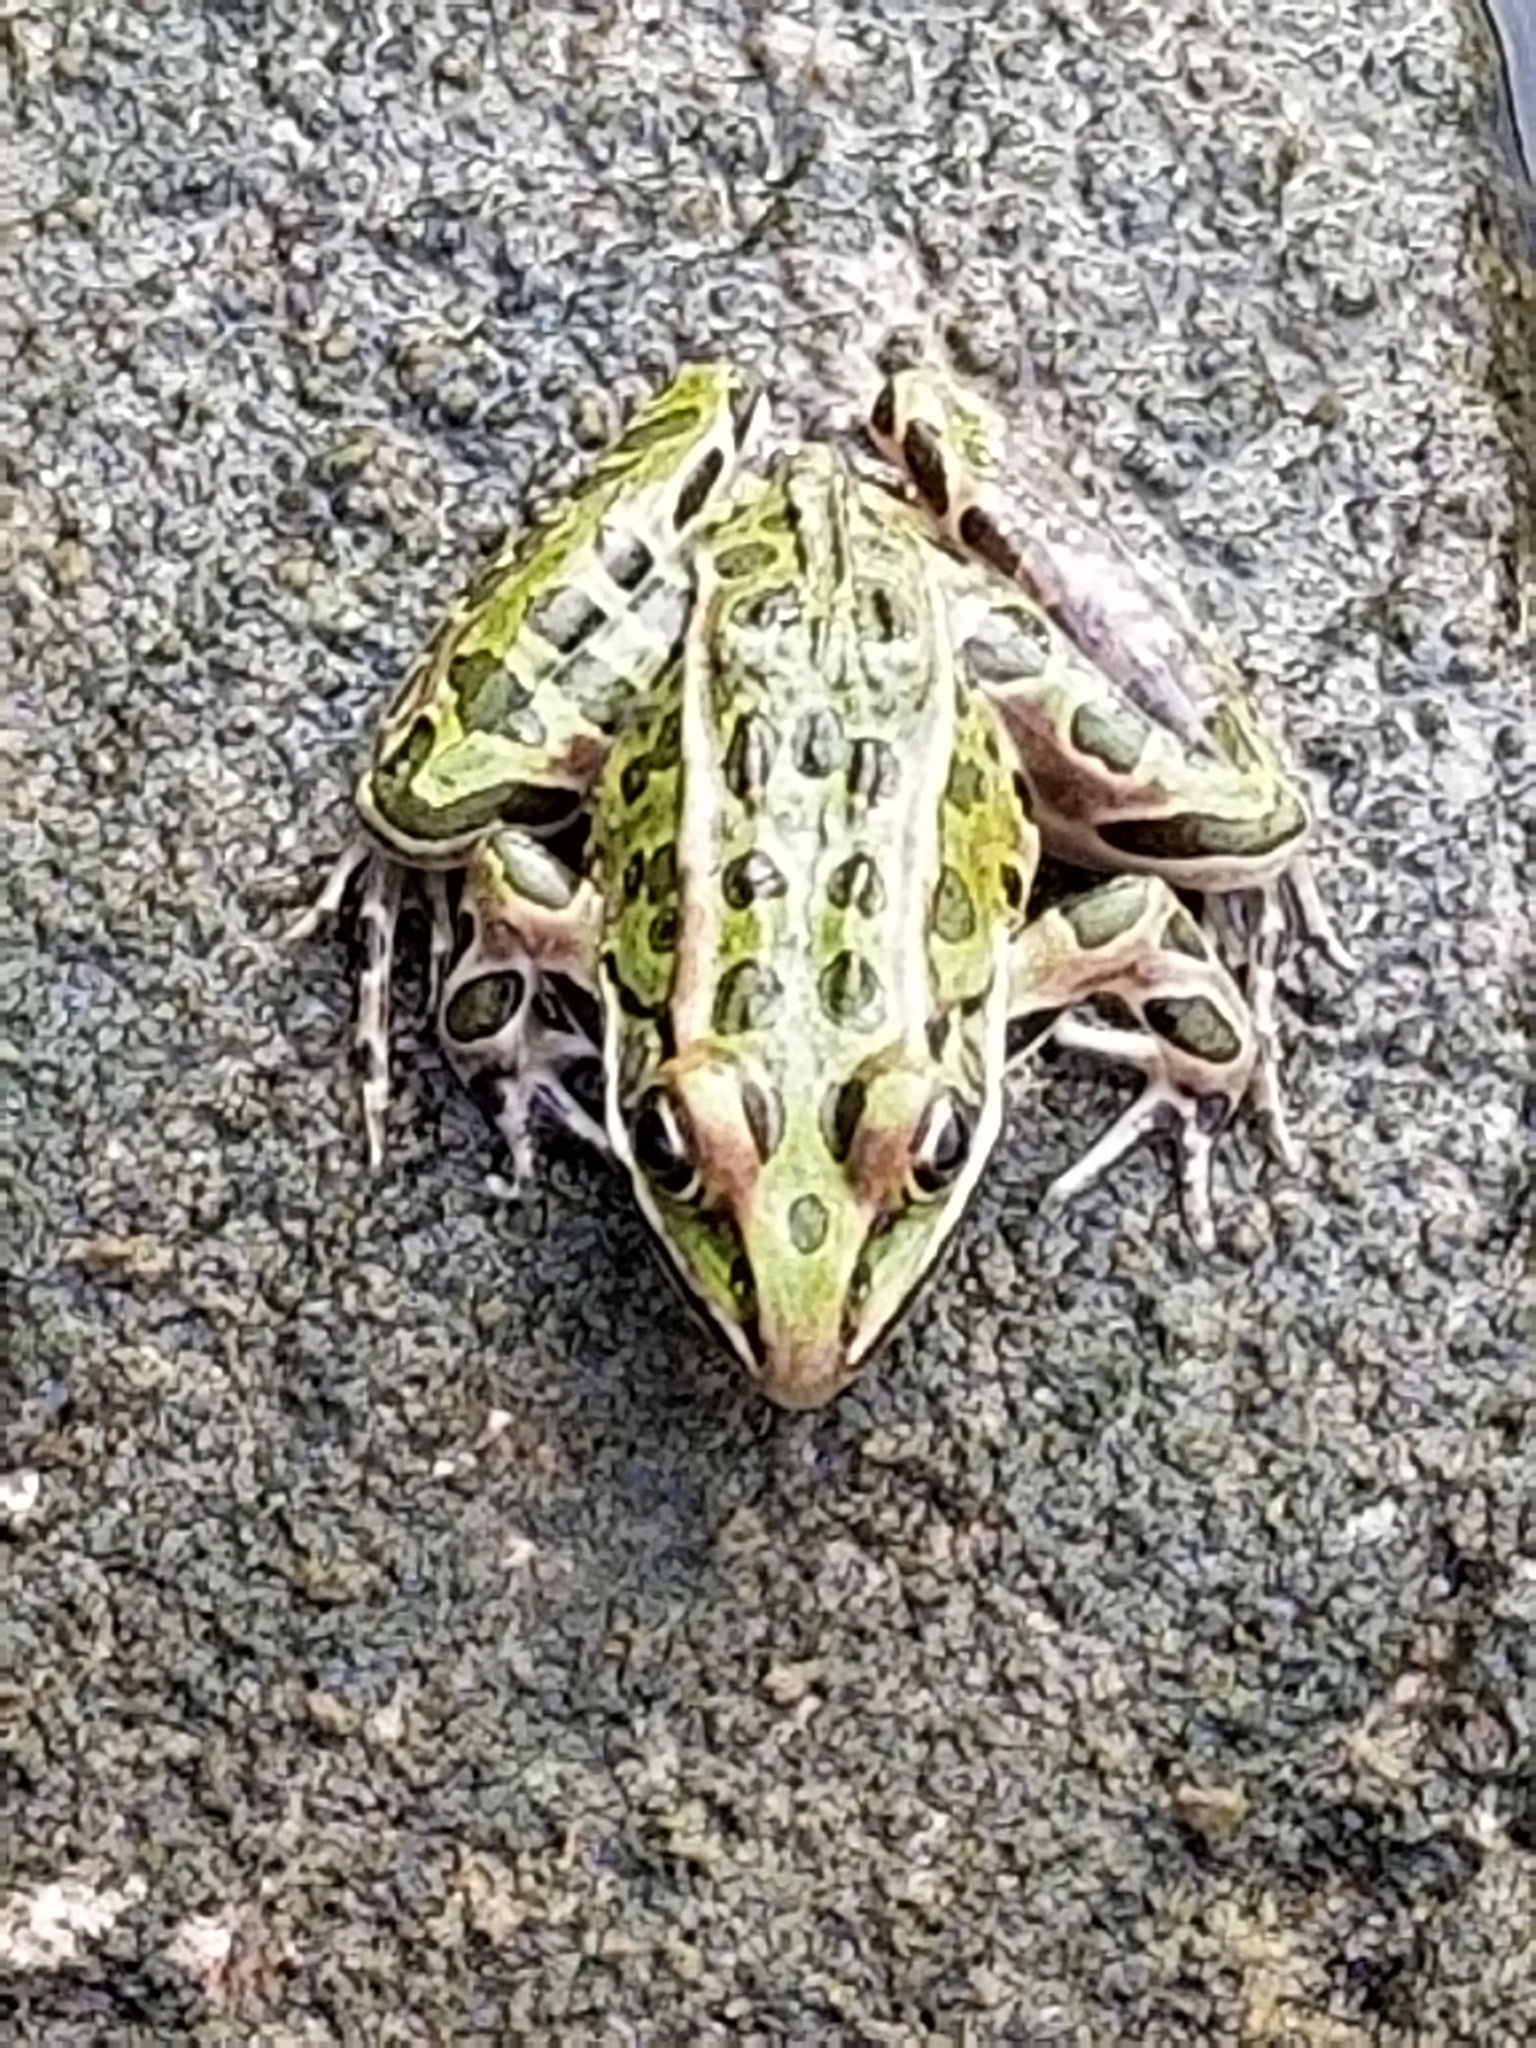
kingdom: Animalia
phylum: Chordata
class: Amphibia
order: Anura
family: Ranidae
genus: Lithobates
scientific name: Lithobates pipiens
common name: Northern leopard frog
